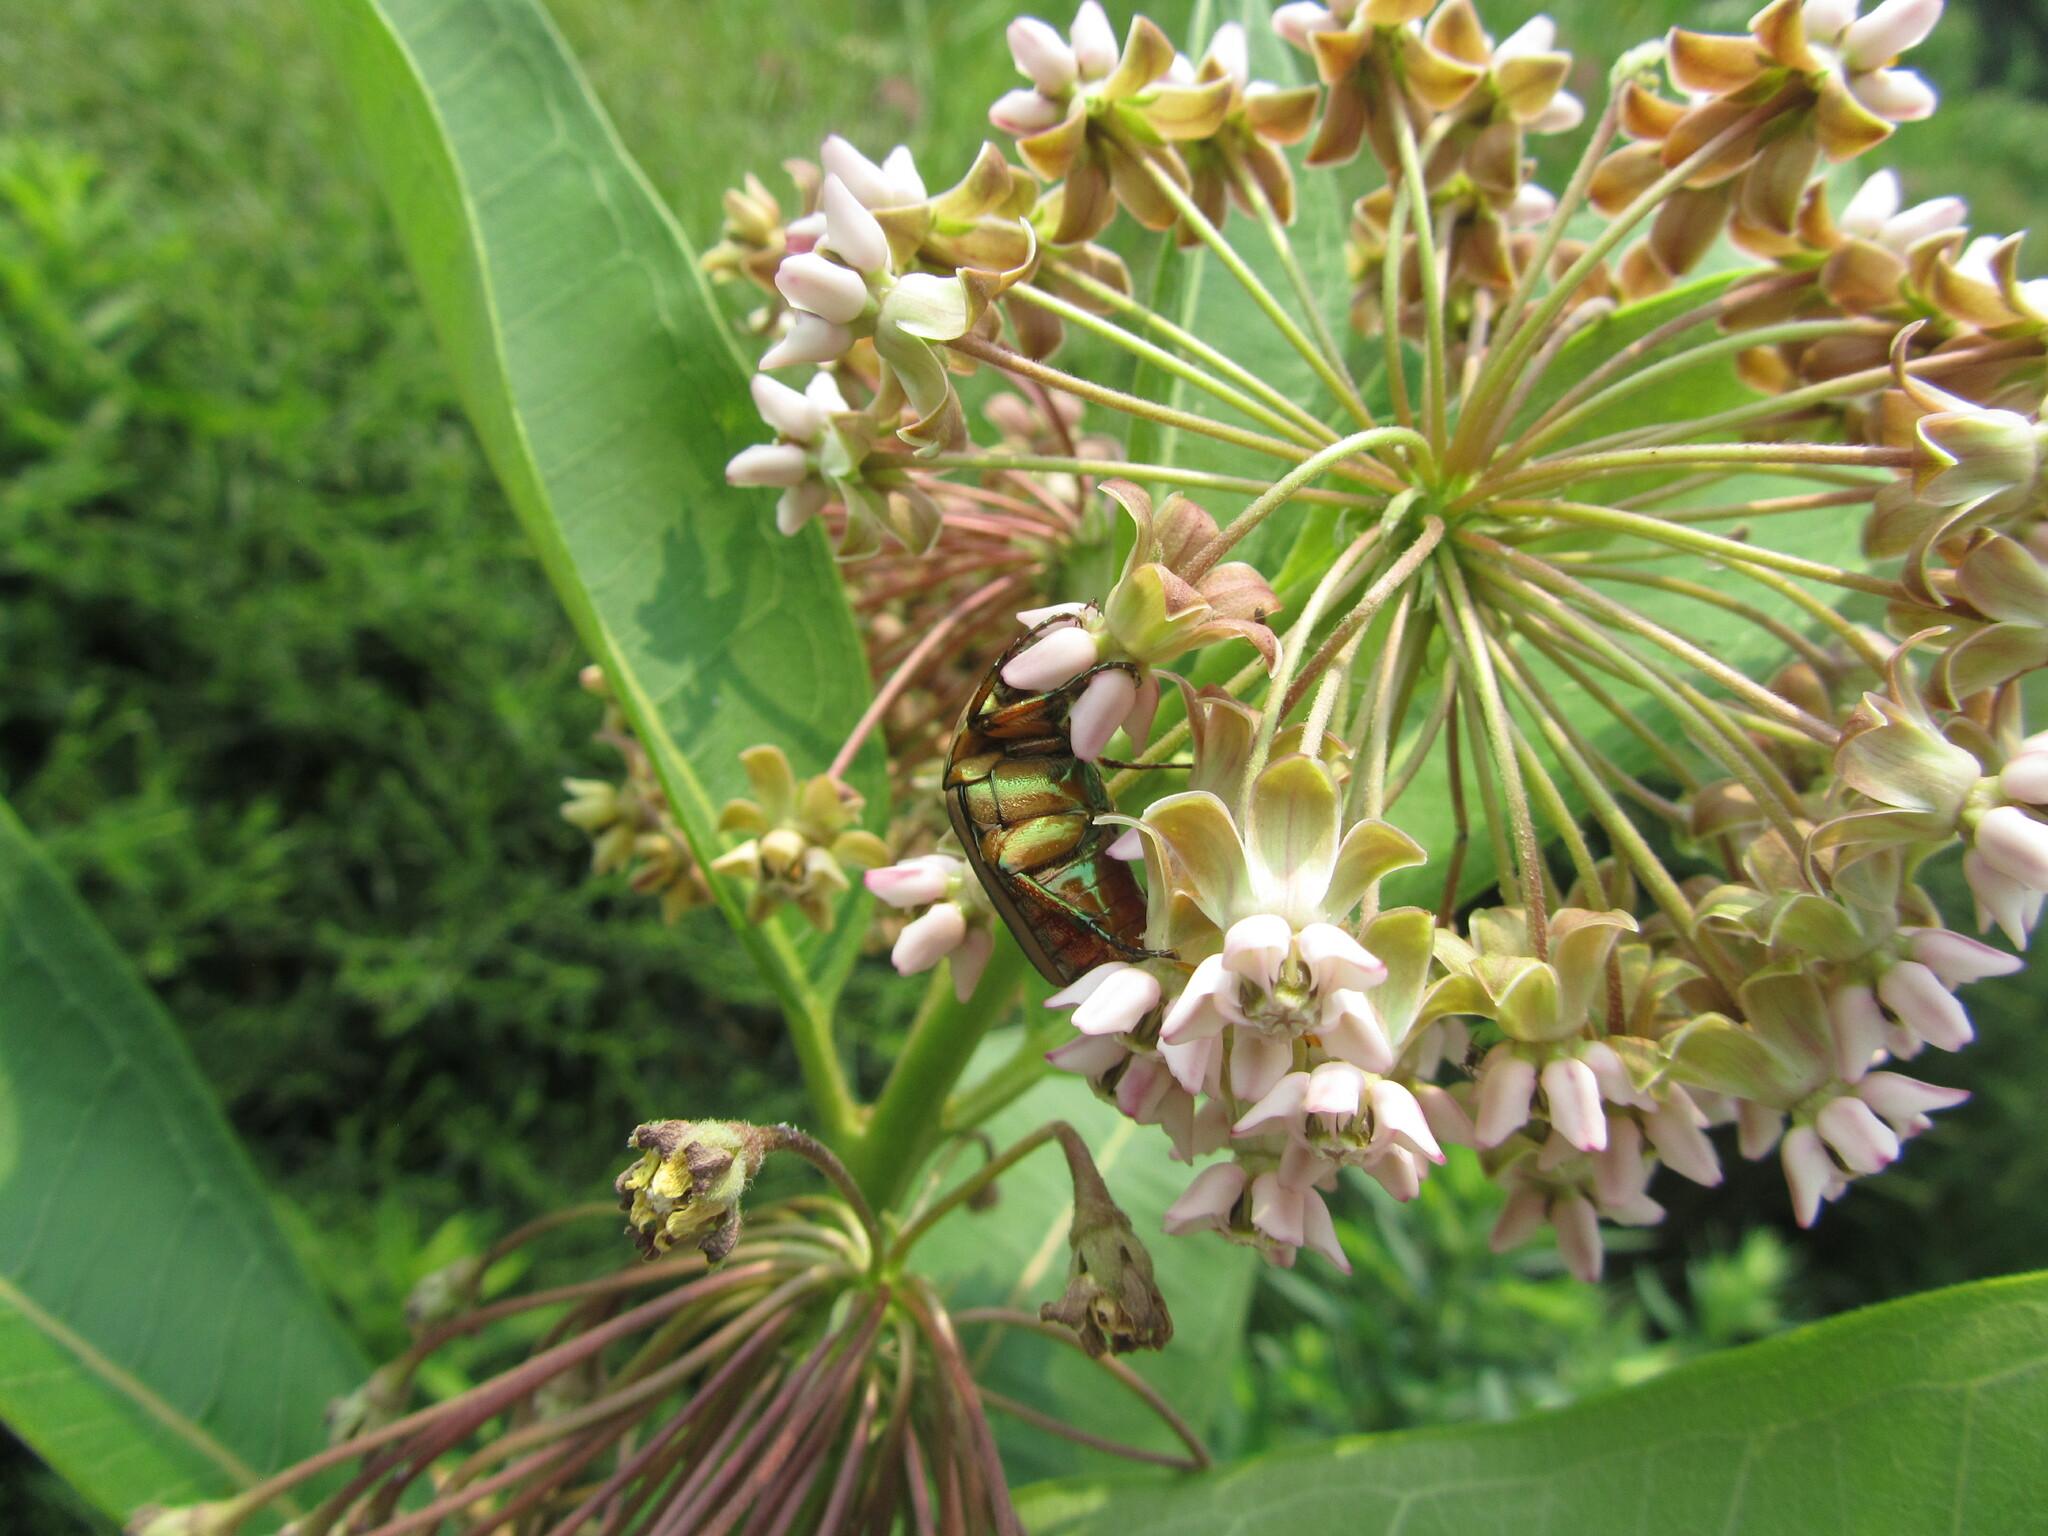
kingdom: Animalia
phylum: Arthropoda
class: Insecta
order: Coleoptera
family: Scarabaeidae
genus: Cotinis
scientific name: Cotinis nitida
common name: Common green june beetle
